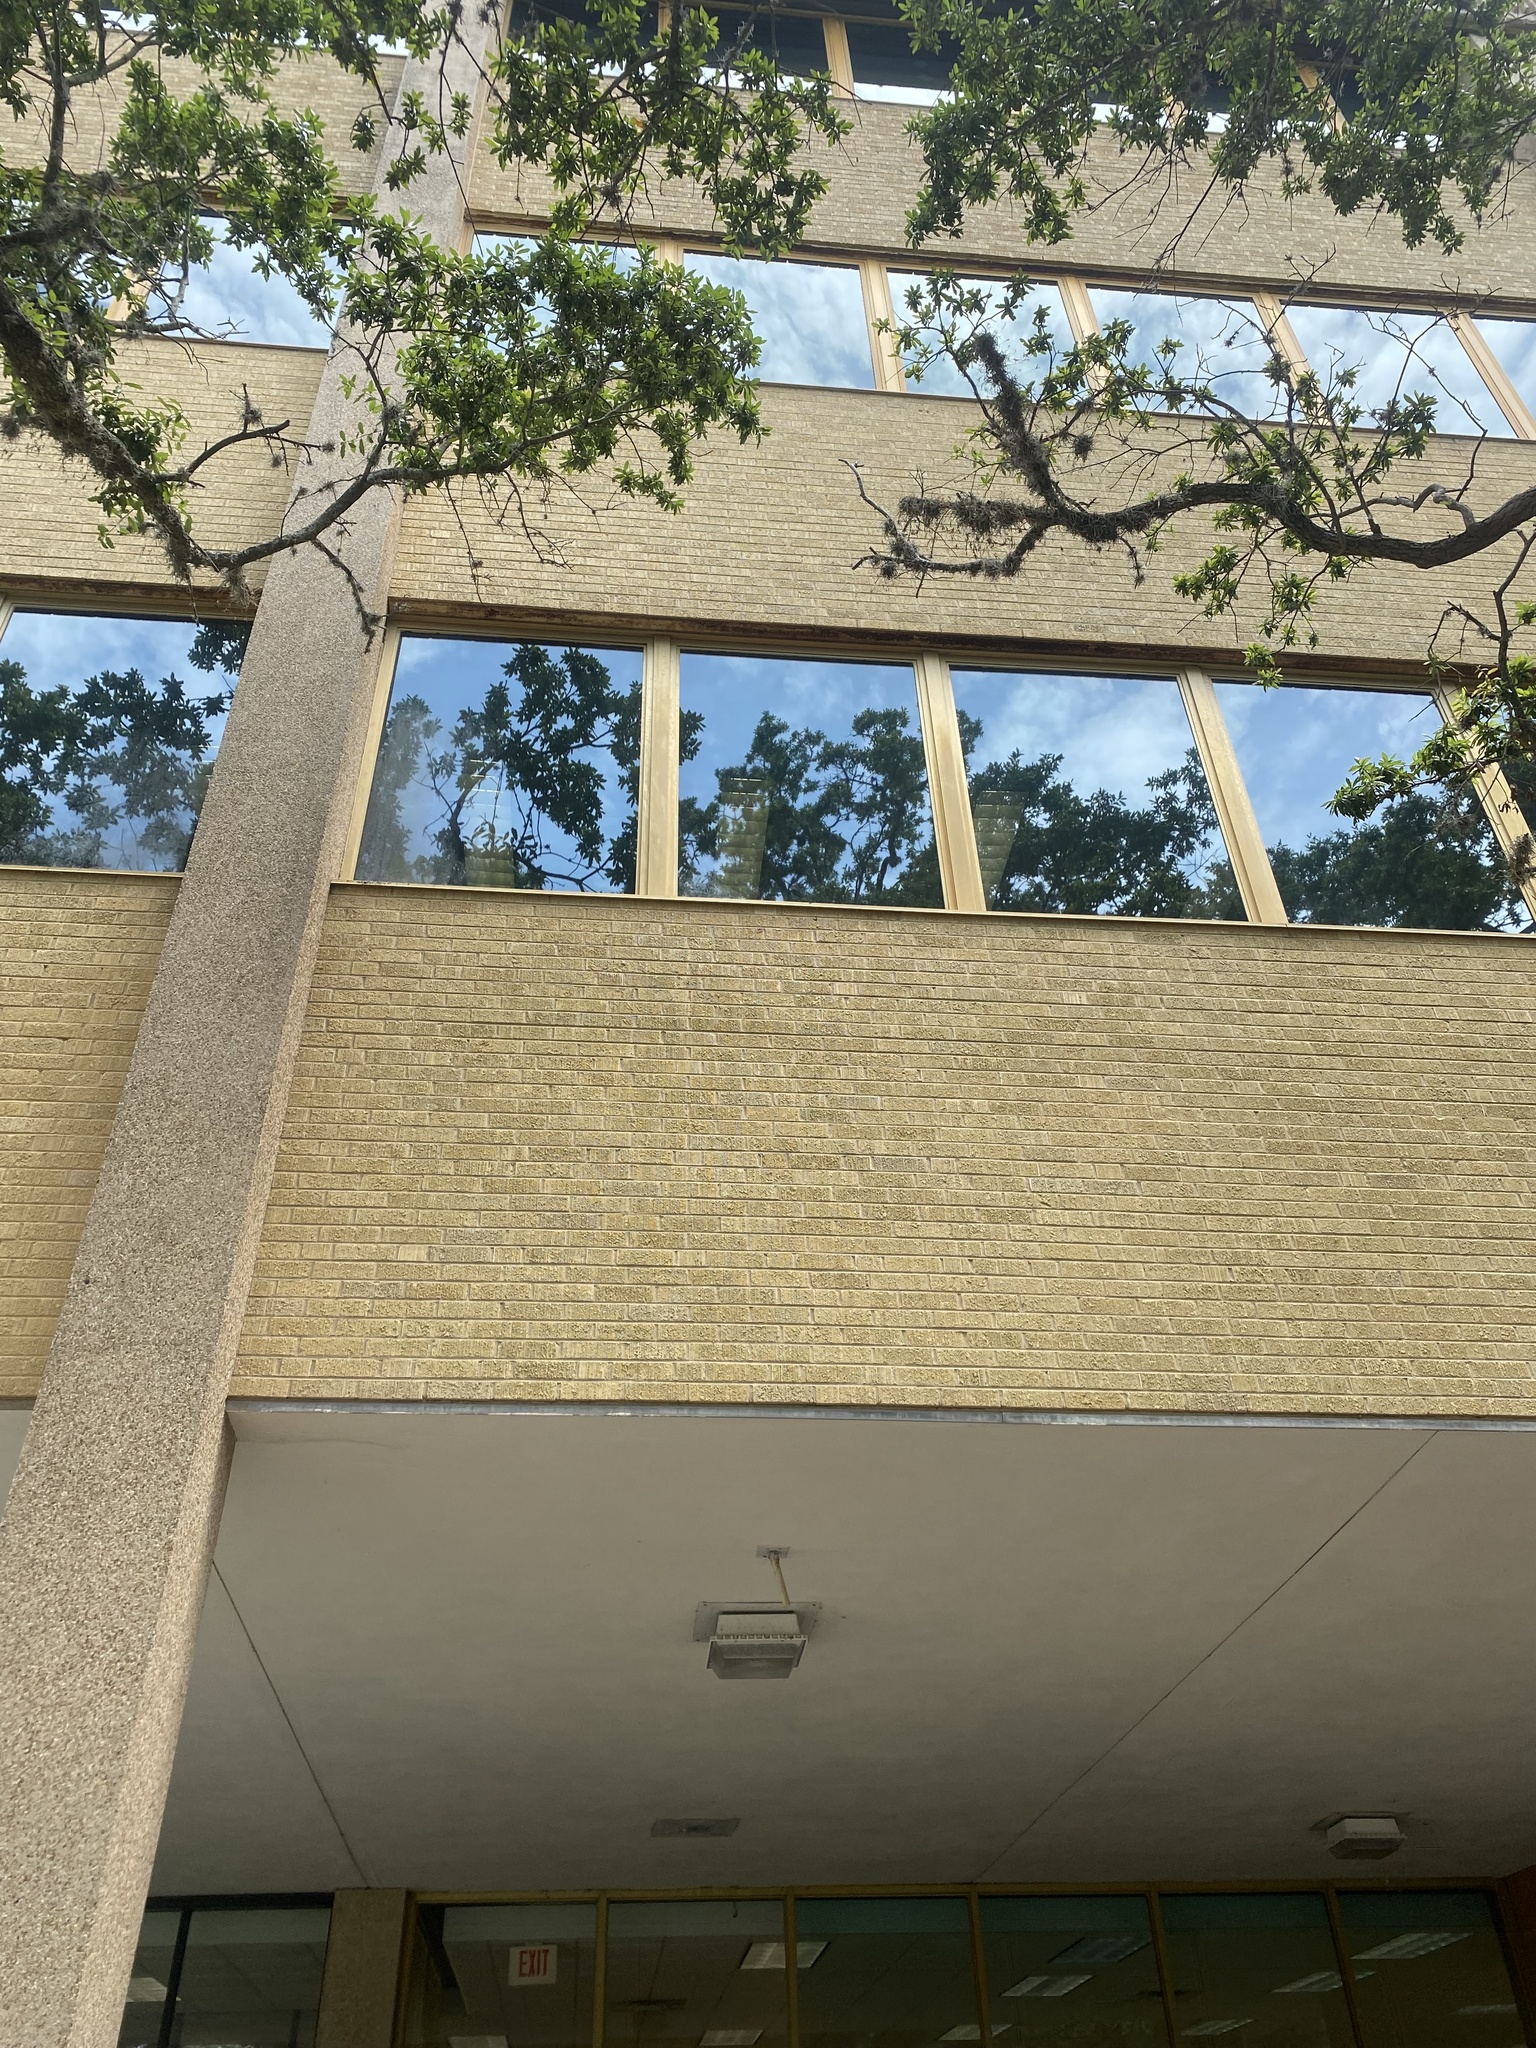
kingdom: Animalia
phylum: Chordata
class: Aves
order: Passeriformes
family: Turdidae
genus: Turdus
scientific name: Turdus migratorius
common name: American robin
